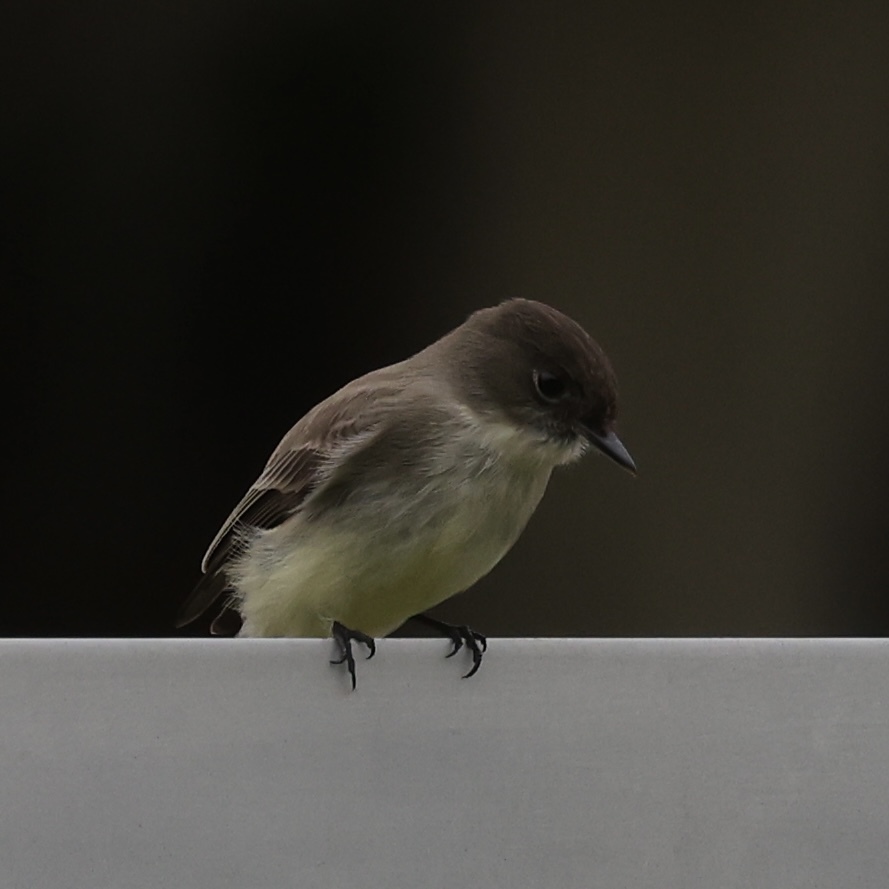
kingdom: Animalia
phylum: Chordata
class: Aves
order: Passeriformes
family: Tyrannidae
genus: Sayornis
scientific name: Sayornis phoebe
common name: Eastern phoebe
